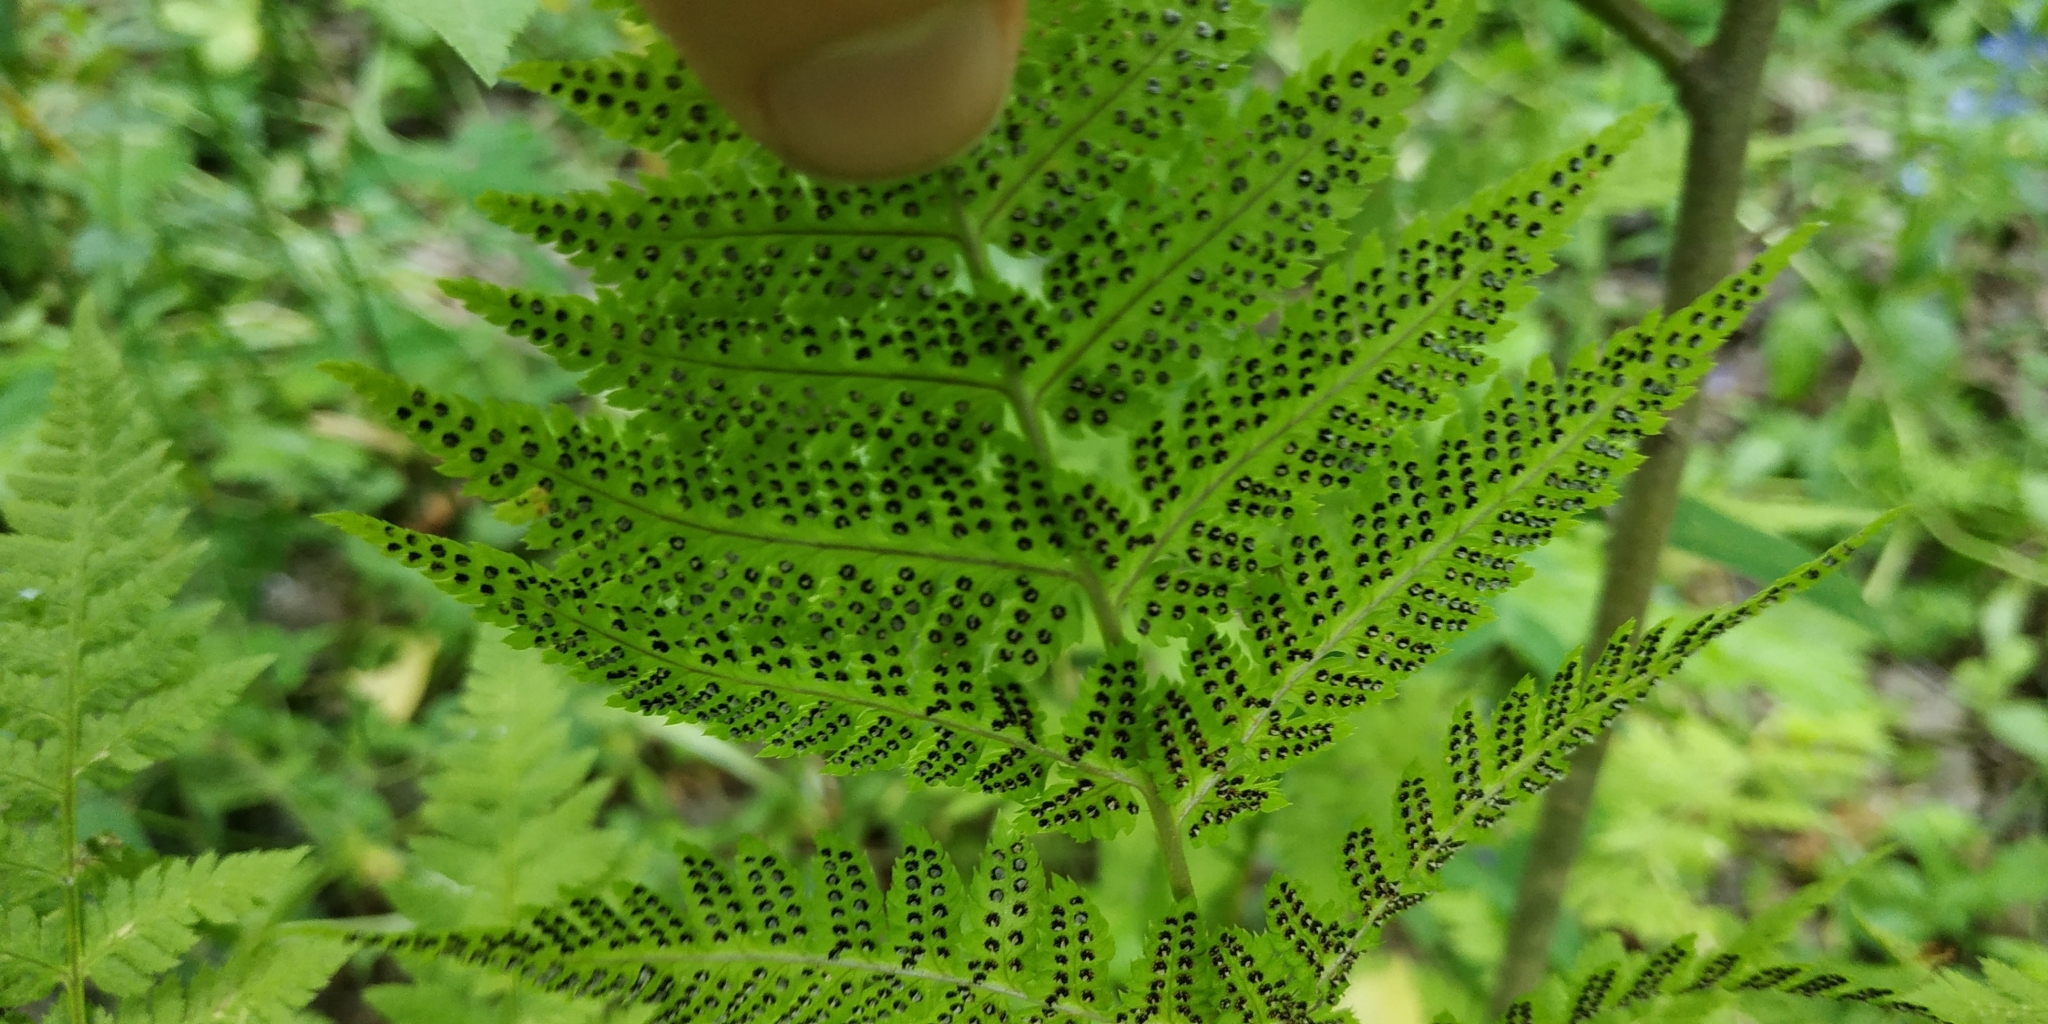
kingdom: Plantae
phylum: Tracheophyta
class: Polypodiopsida
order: Polypodiales
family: Dryopteridaceae
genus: Dryopteris
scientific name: Dryopteris carthusiana
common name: Narrow buckler-fern
